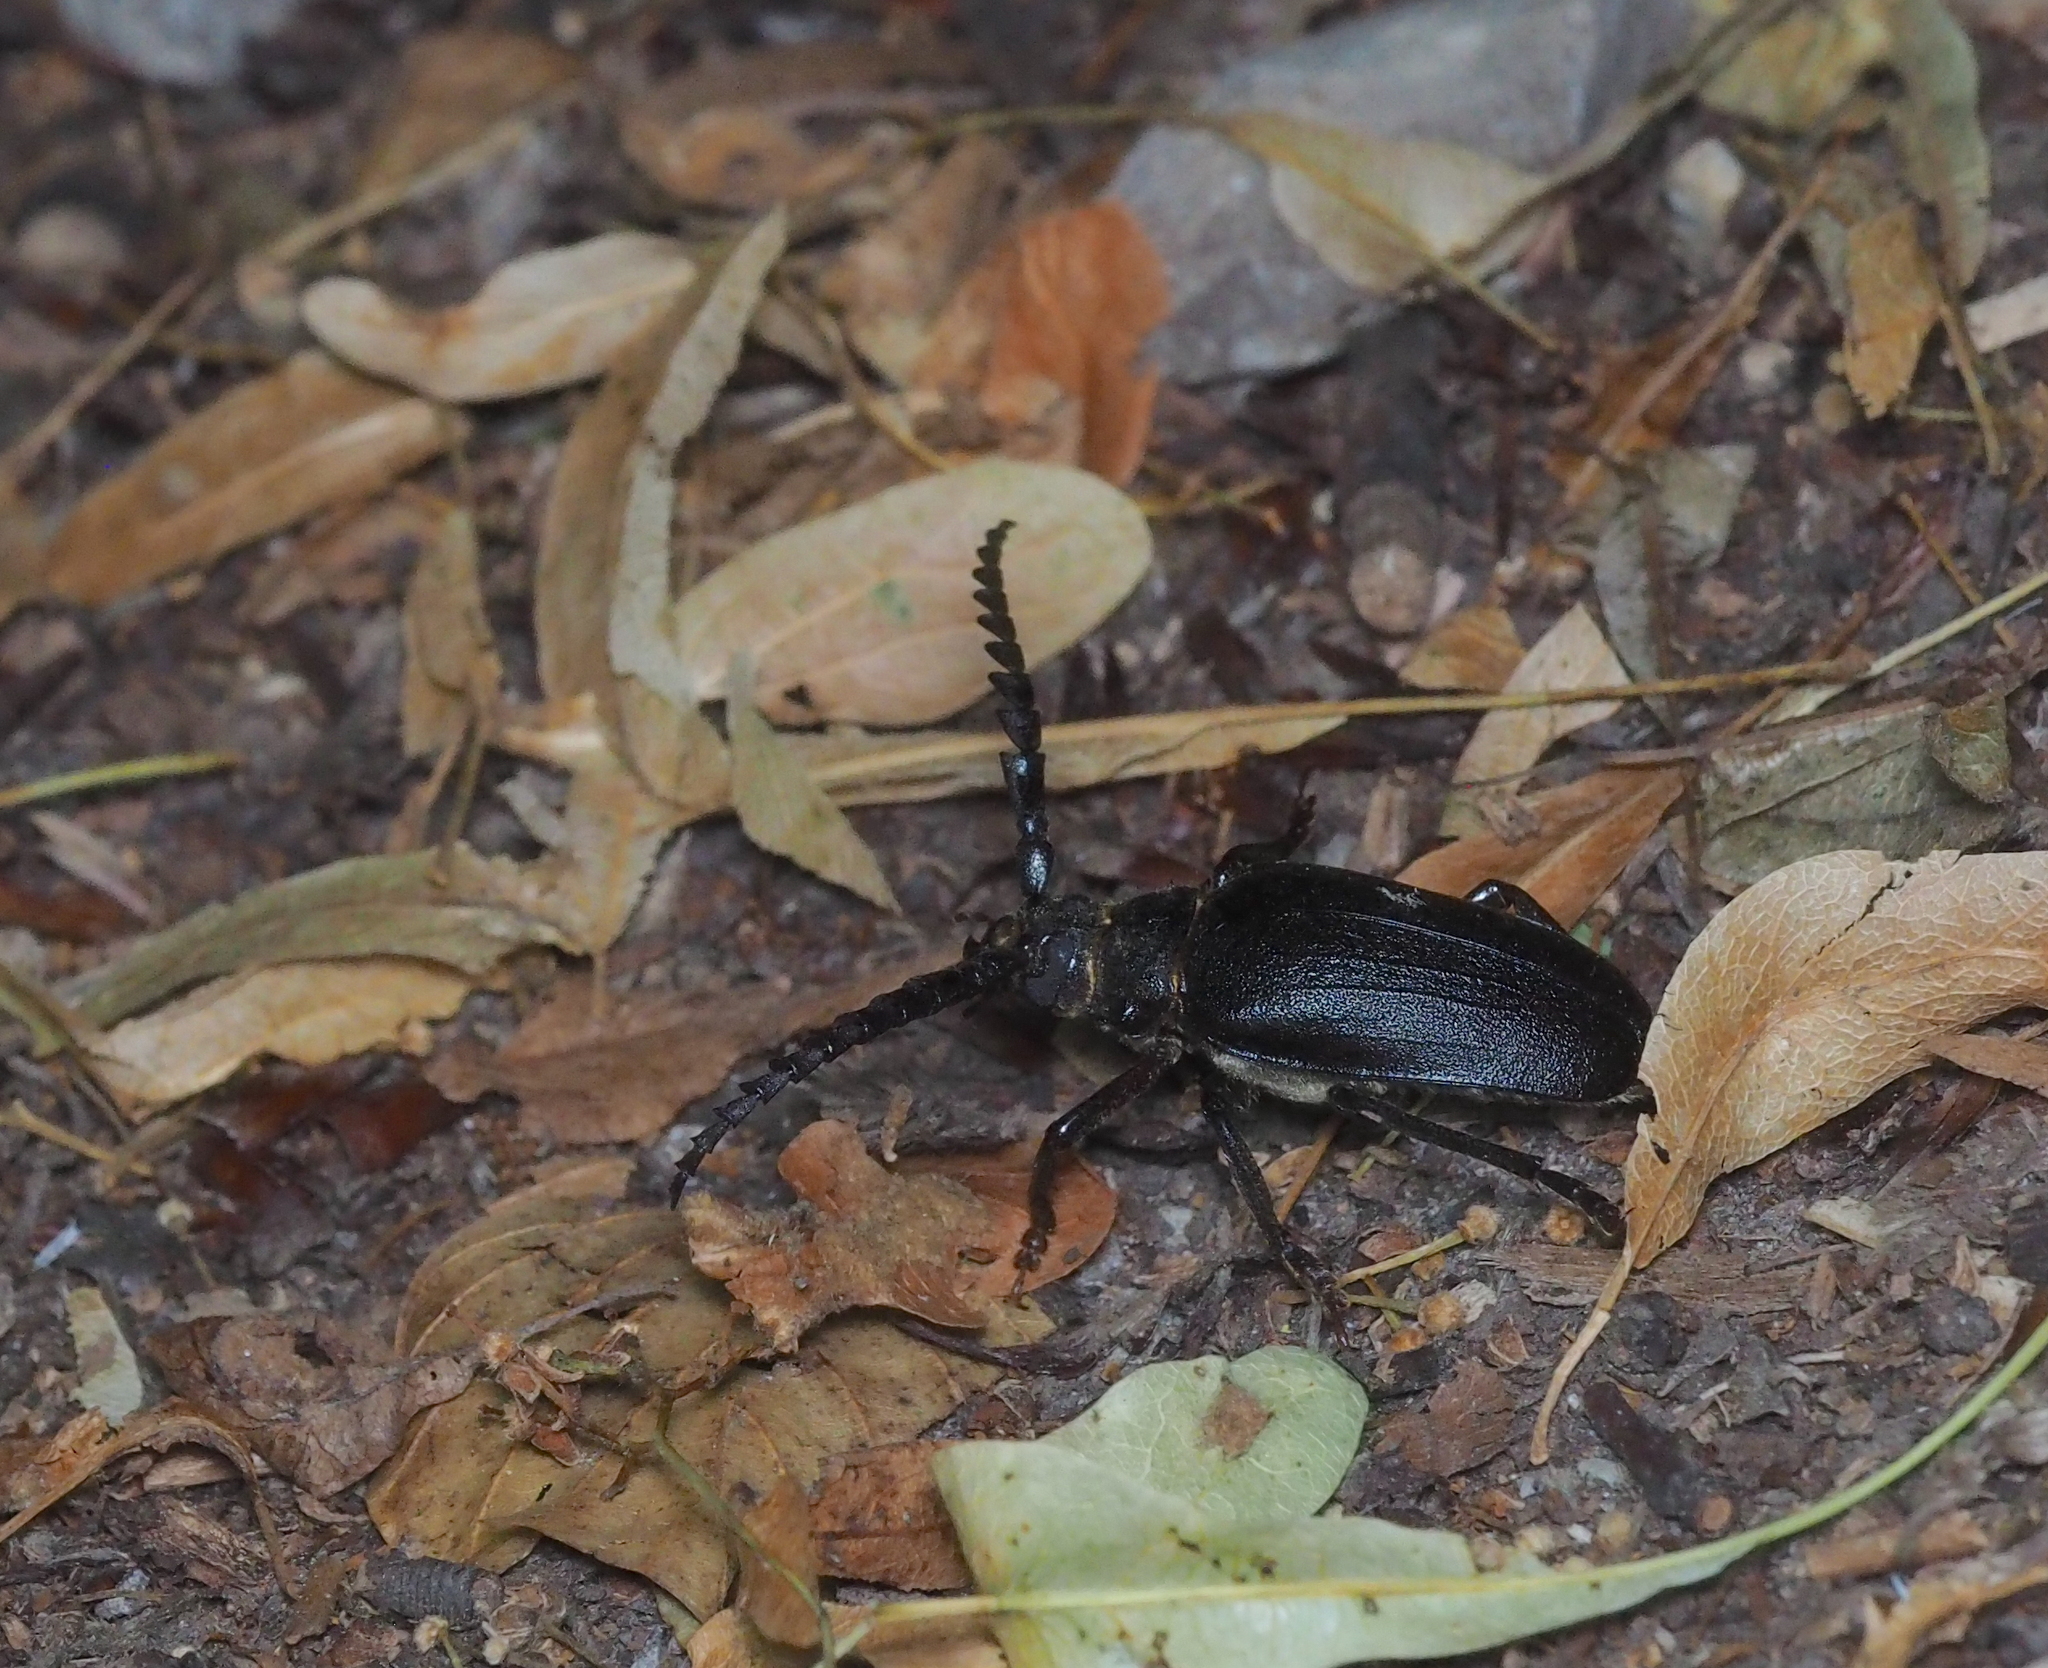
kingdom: Animalia
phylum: Arthropoda
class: Insecta
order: Coleoptera
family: Cerambycidae
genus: Prionus
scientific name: Prionus coriarius
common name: Tanner beetle
